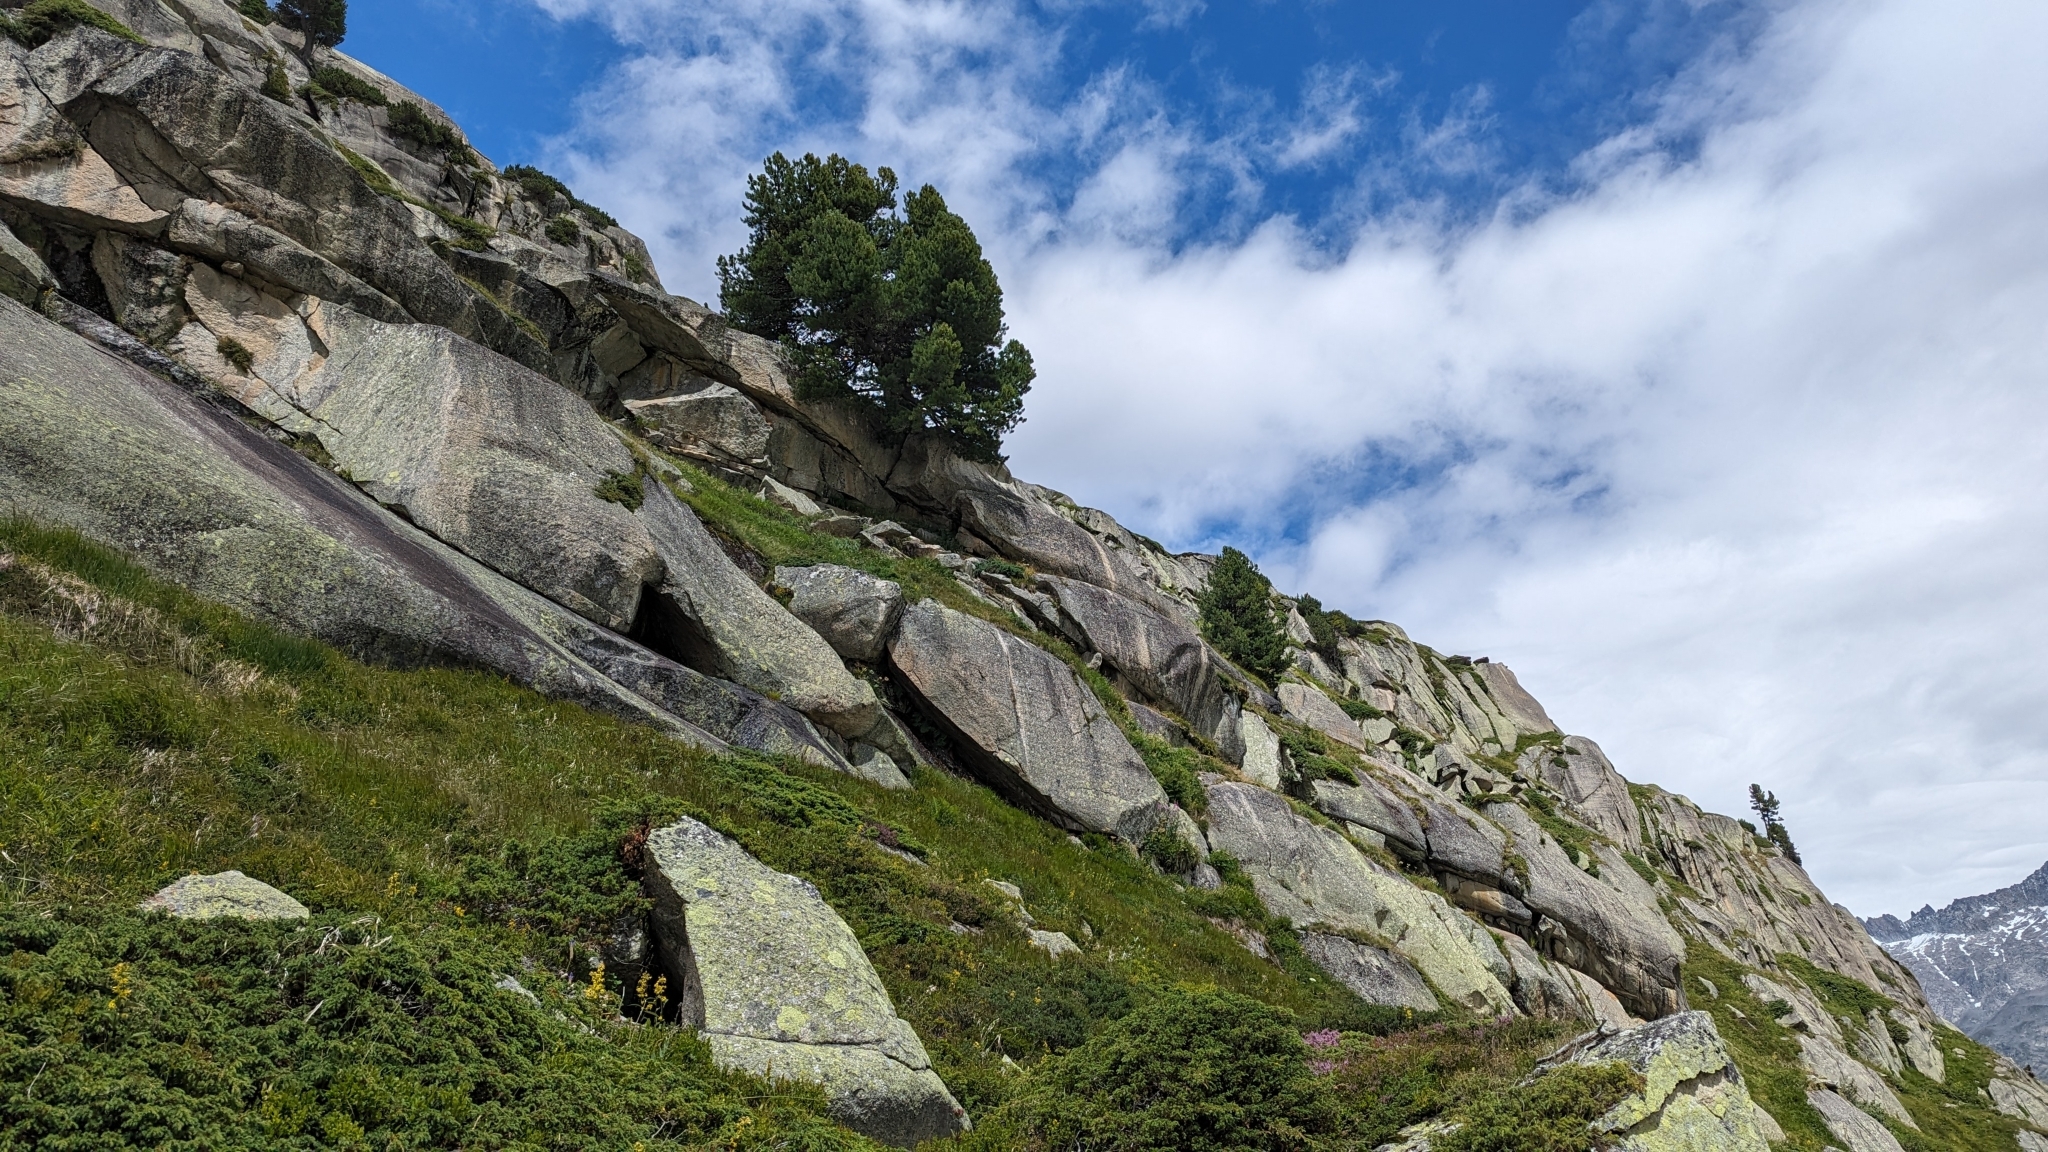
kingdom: Animalia
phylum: Arthropoda
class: Insecta
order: Hymenoptera
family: Formicidae
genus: Formica
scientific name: Formica
